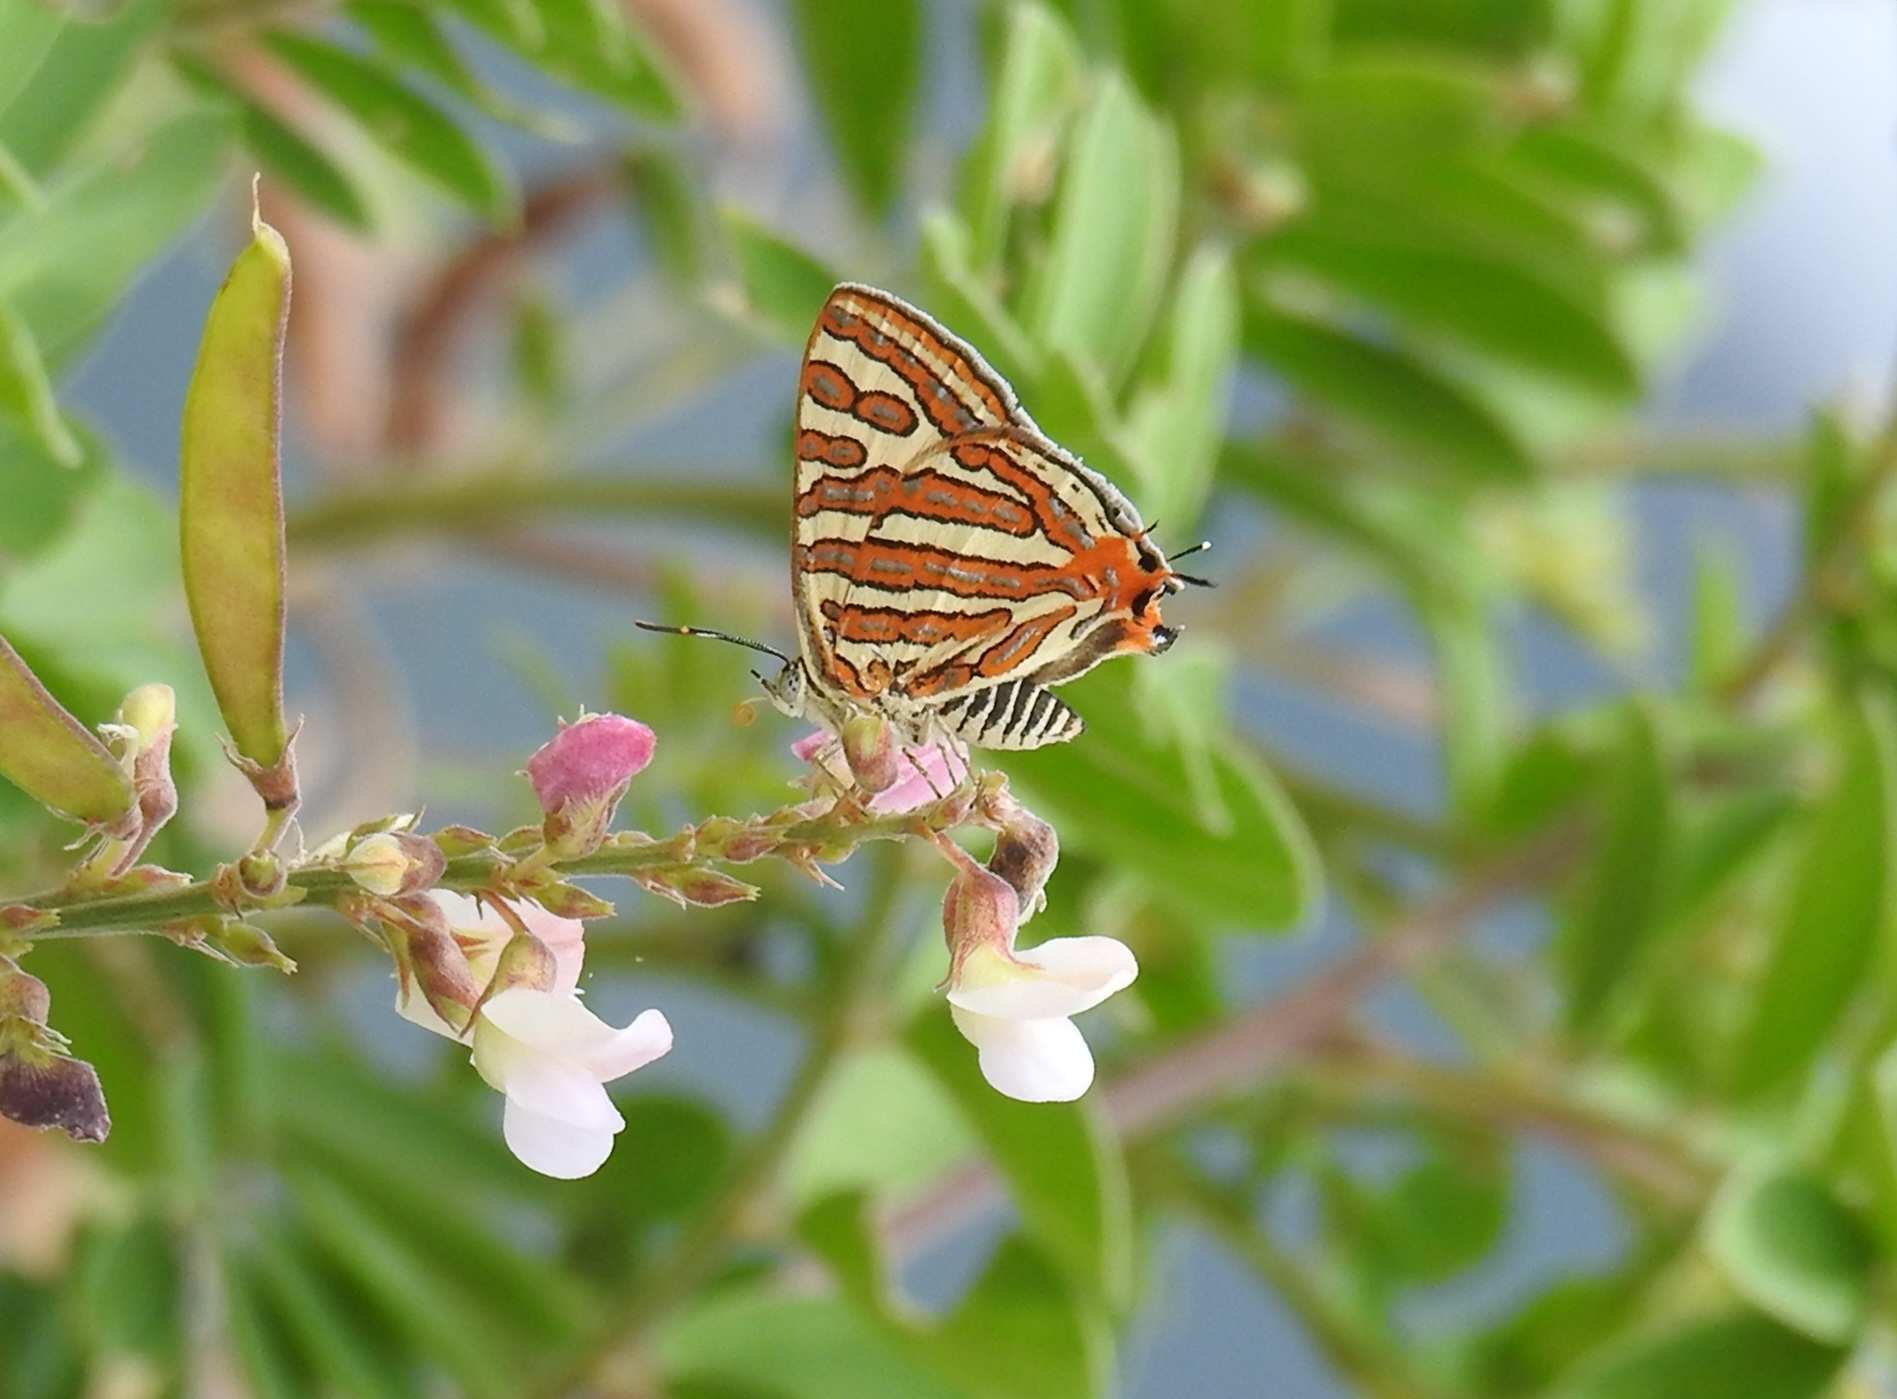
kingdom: Animalia
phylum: Arthropoda
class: Insecta
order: Lepidoptera
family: Lycaenidae
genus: Cigaritis
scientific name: Cigaritis vulcanus
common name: Common silverline
